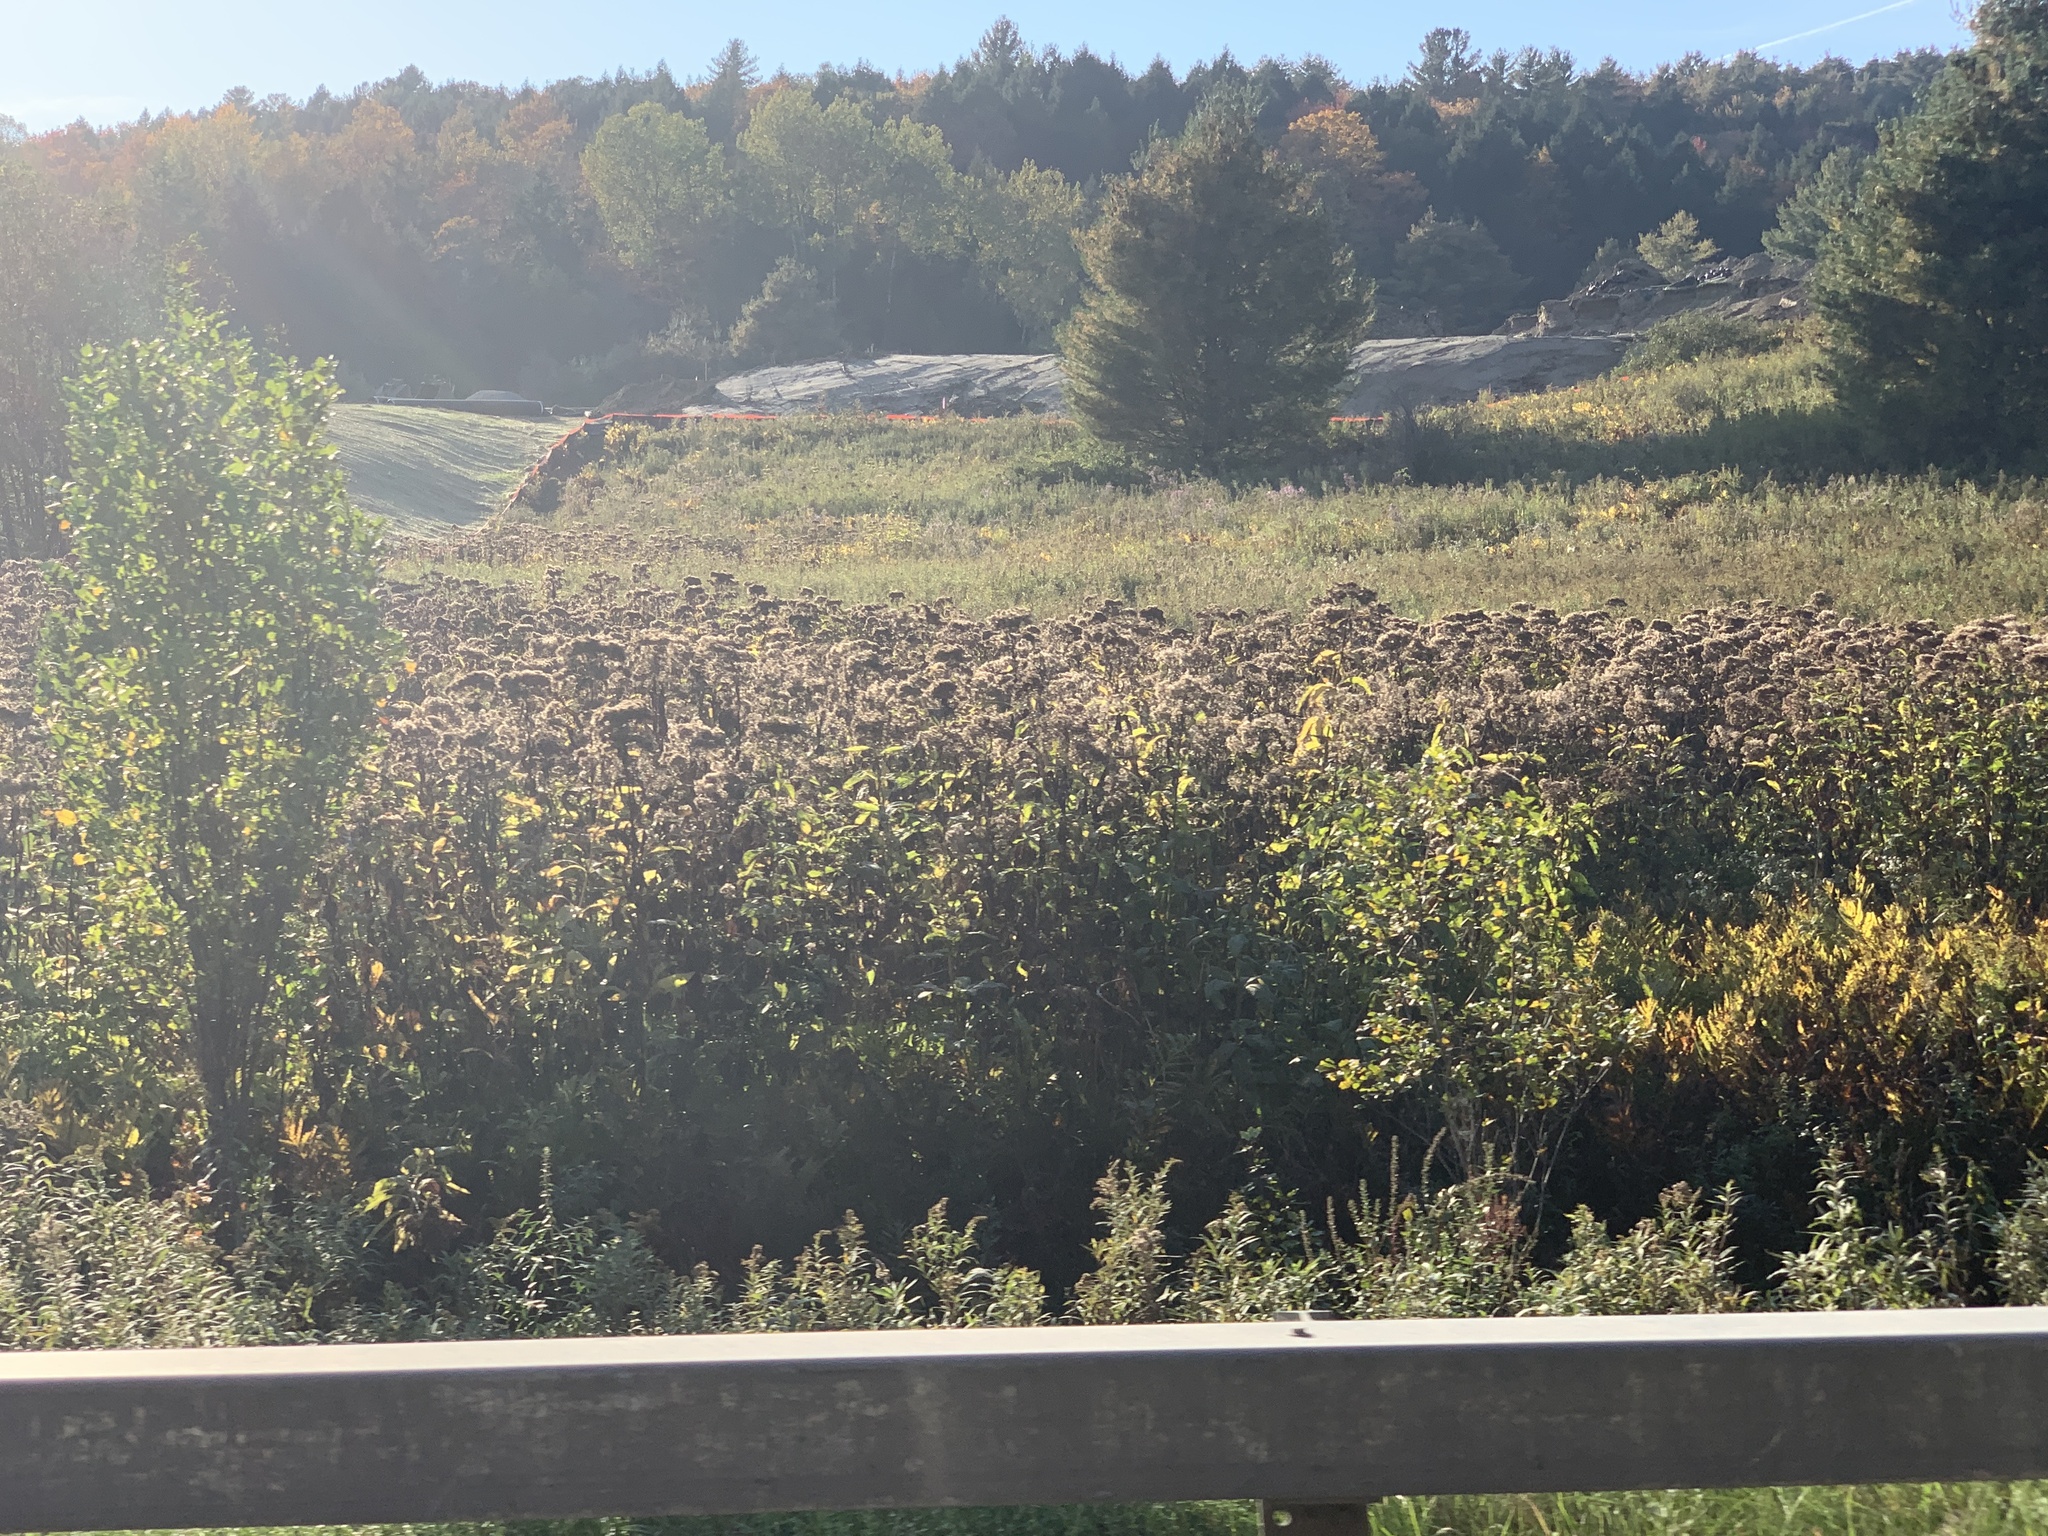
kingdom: Plantae
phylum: Tracheophyta
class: Magnoliopsida
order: Asterales
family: Asteraceae
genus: Eutrochium
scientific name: Eutrochium maculatum
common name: Spotted joe pye weed
